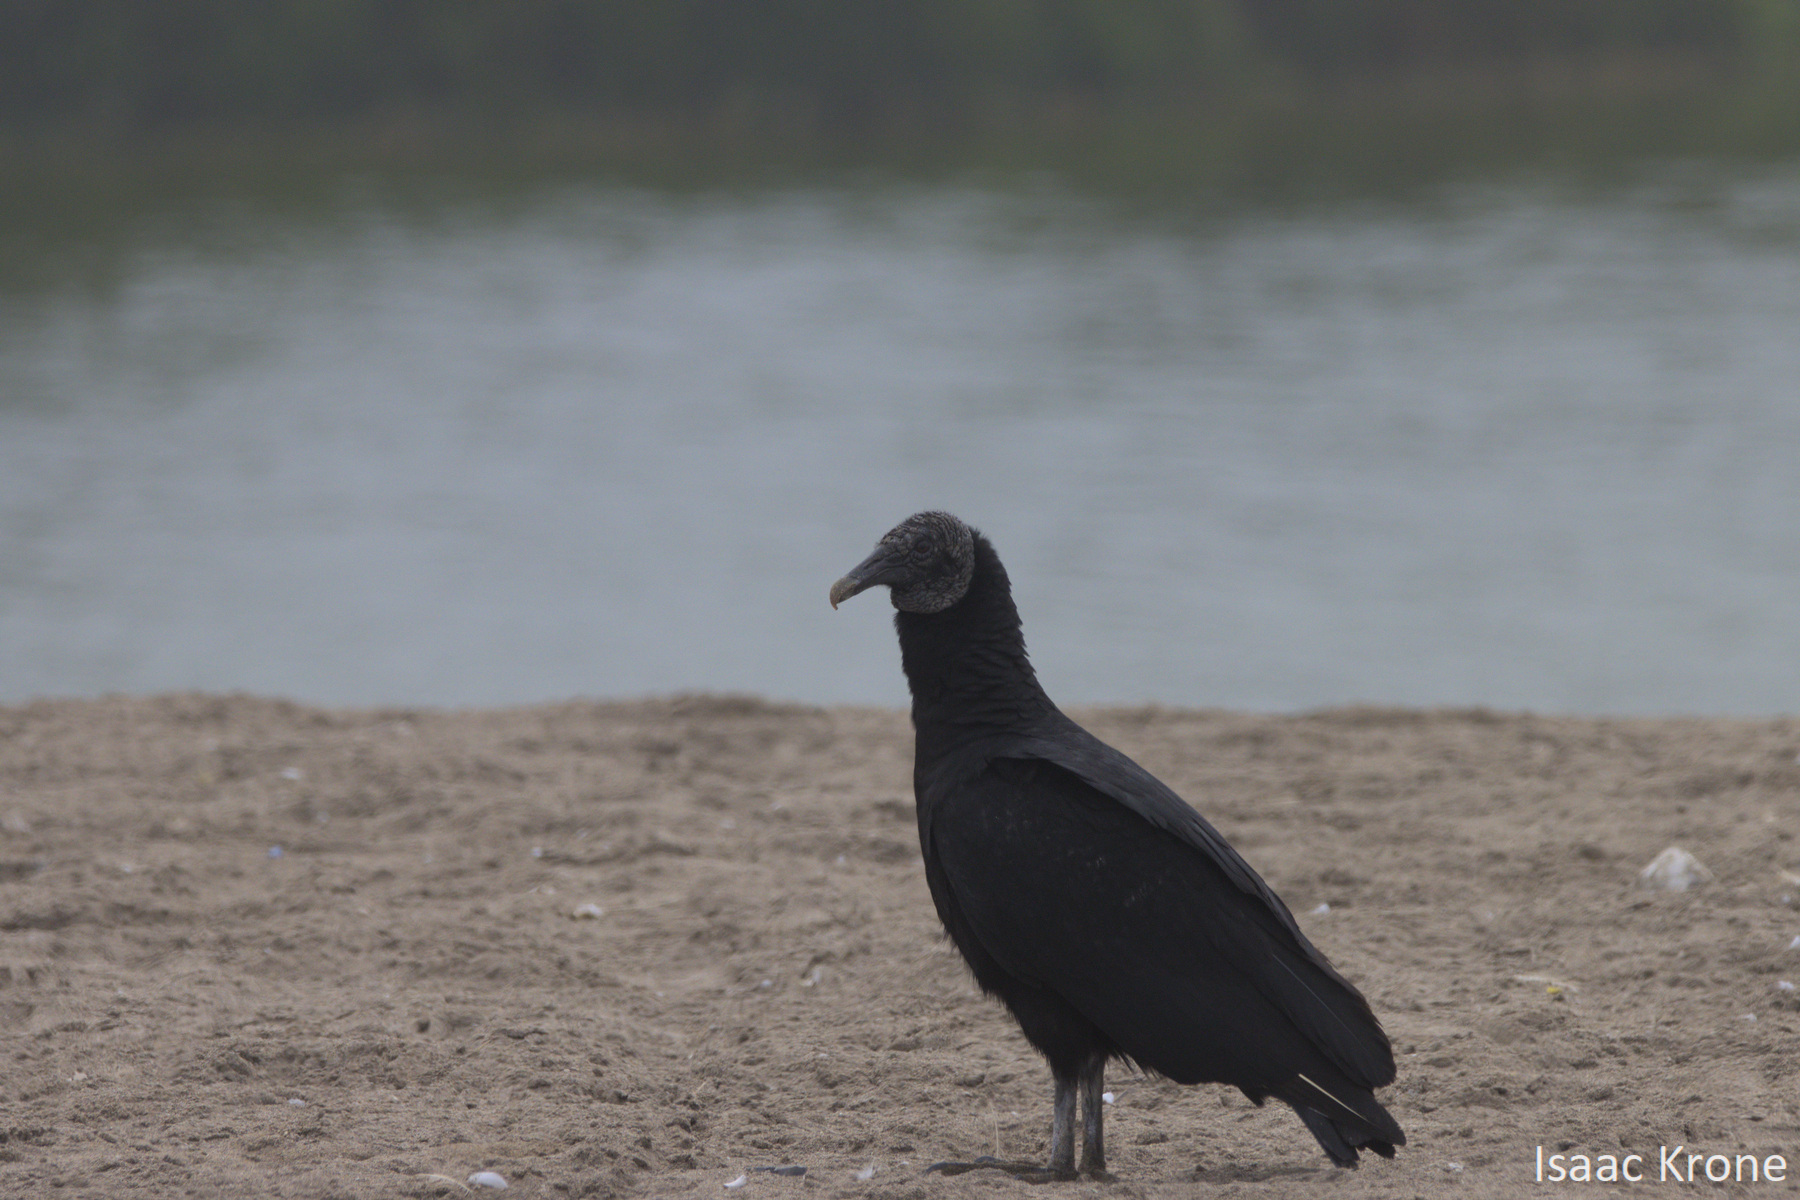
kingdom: Animalia
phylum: Chordata
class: Aves
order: Accipitriformes
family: Cathartidae
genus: Coragyps
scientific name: Coragyps atratus
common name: Black vulture
